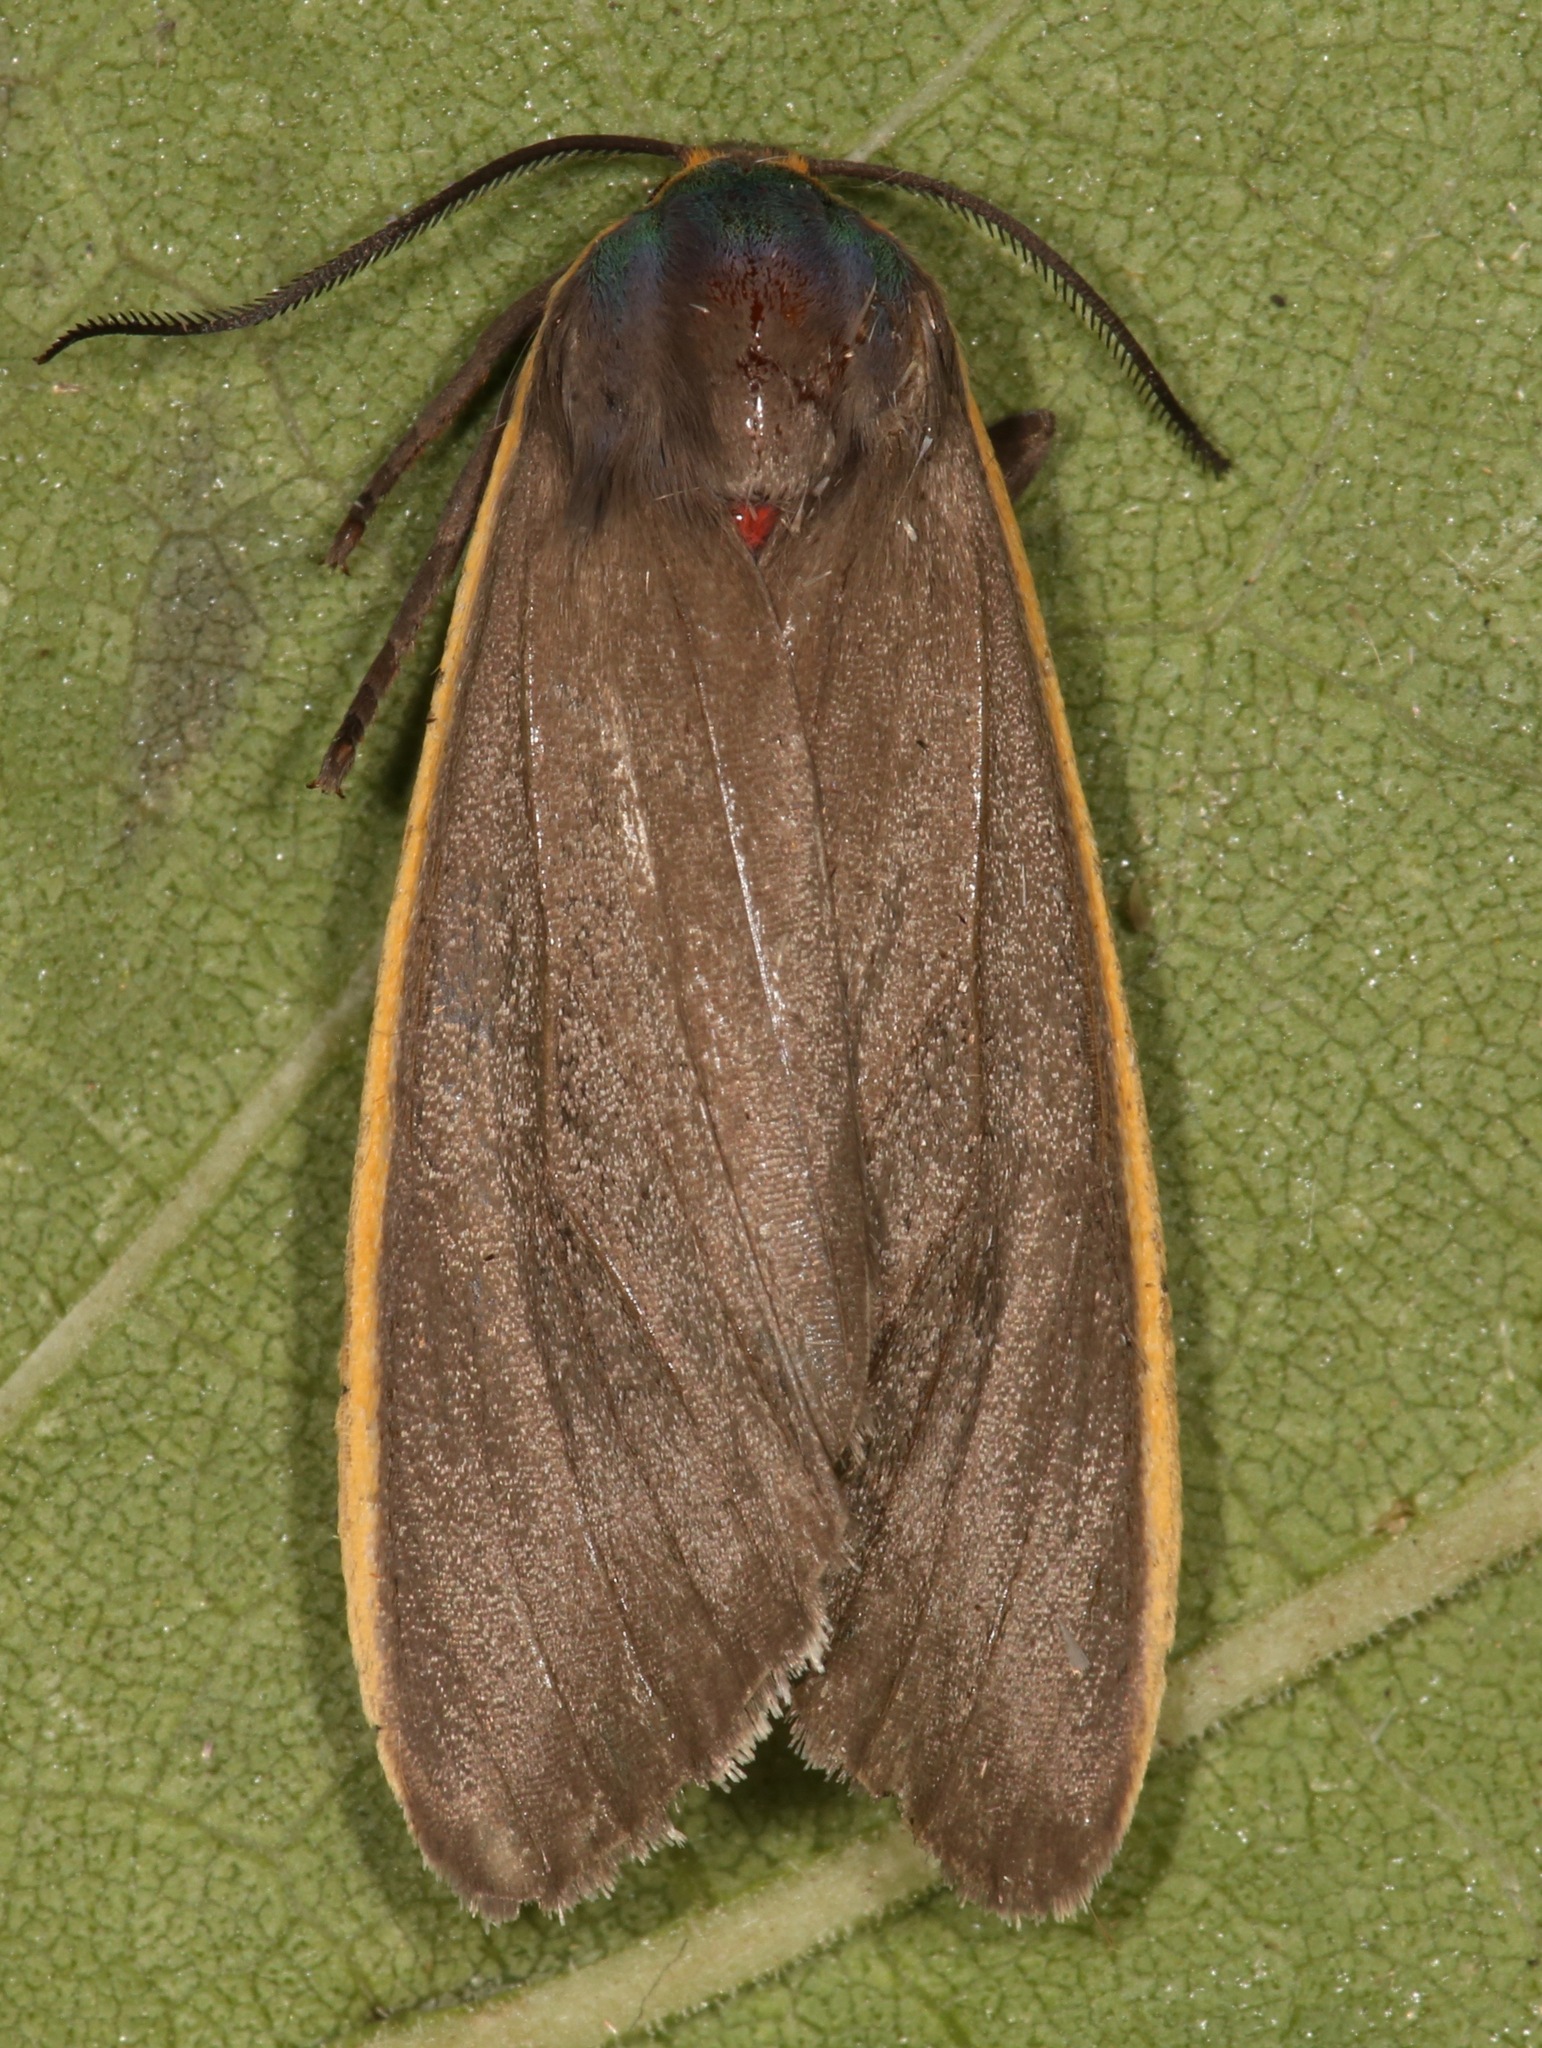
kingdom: Animalia
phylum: Arthropoda
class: Insecta
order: Lepidoptera
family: Erebidae
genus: Euchaetes
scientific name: Euchaetes antica
